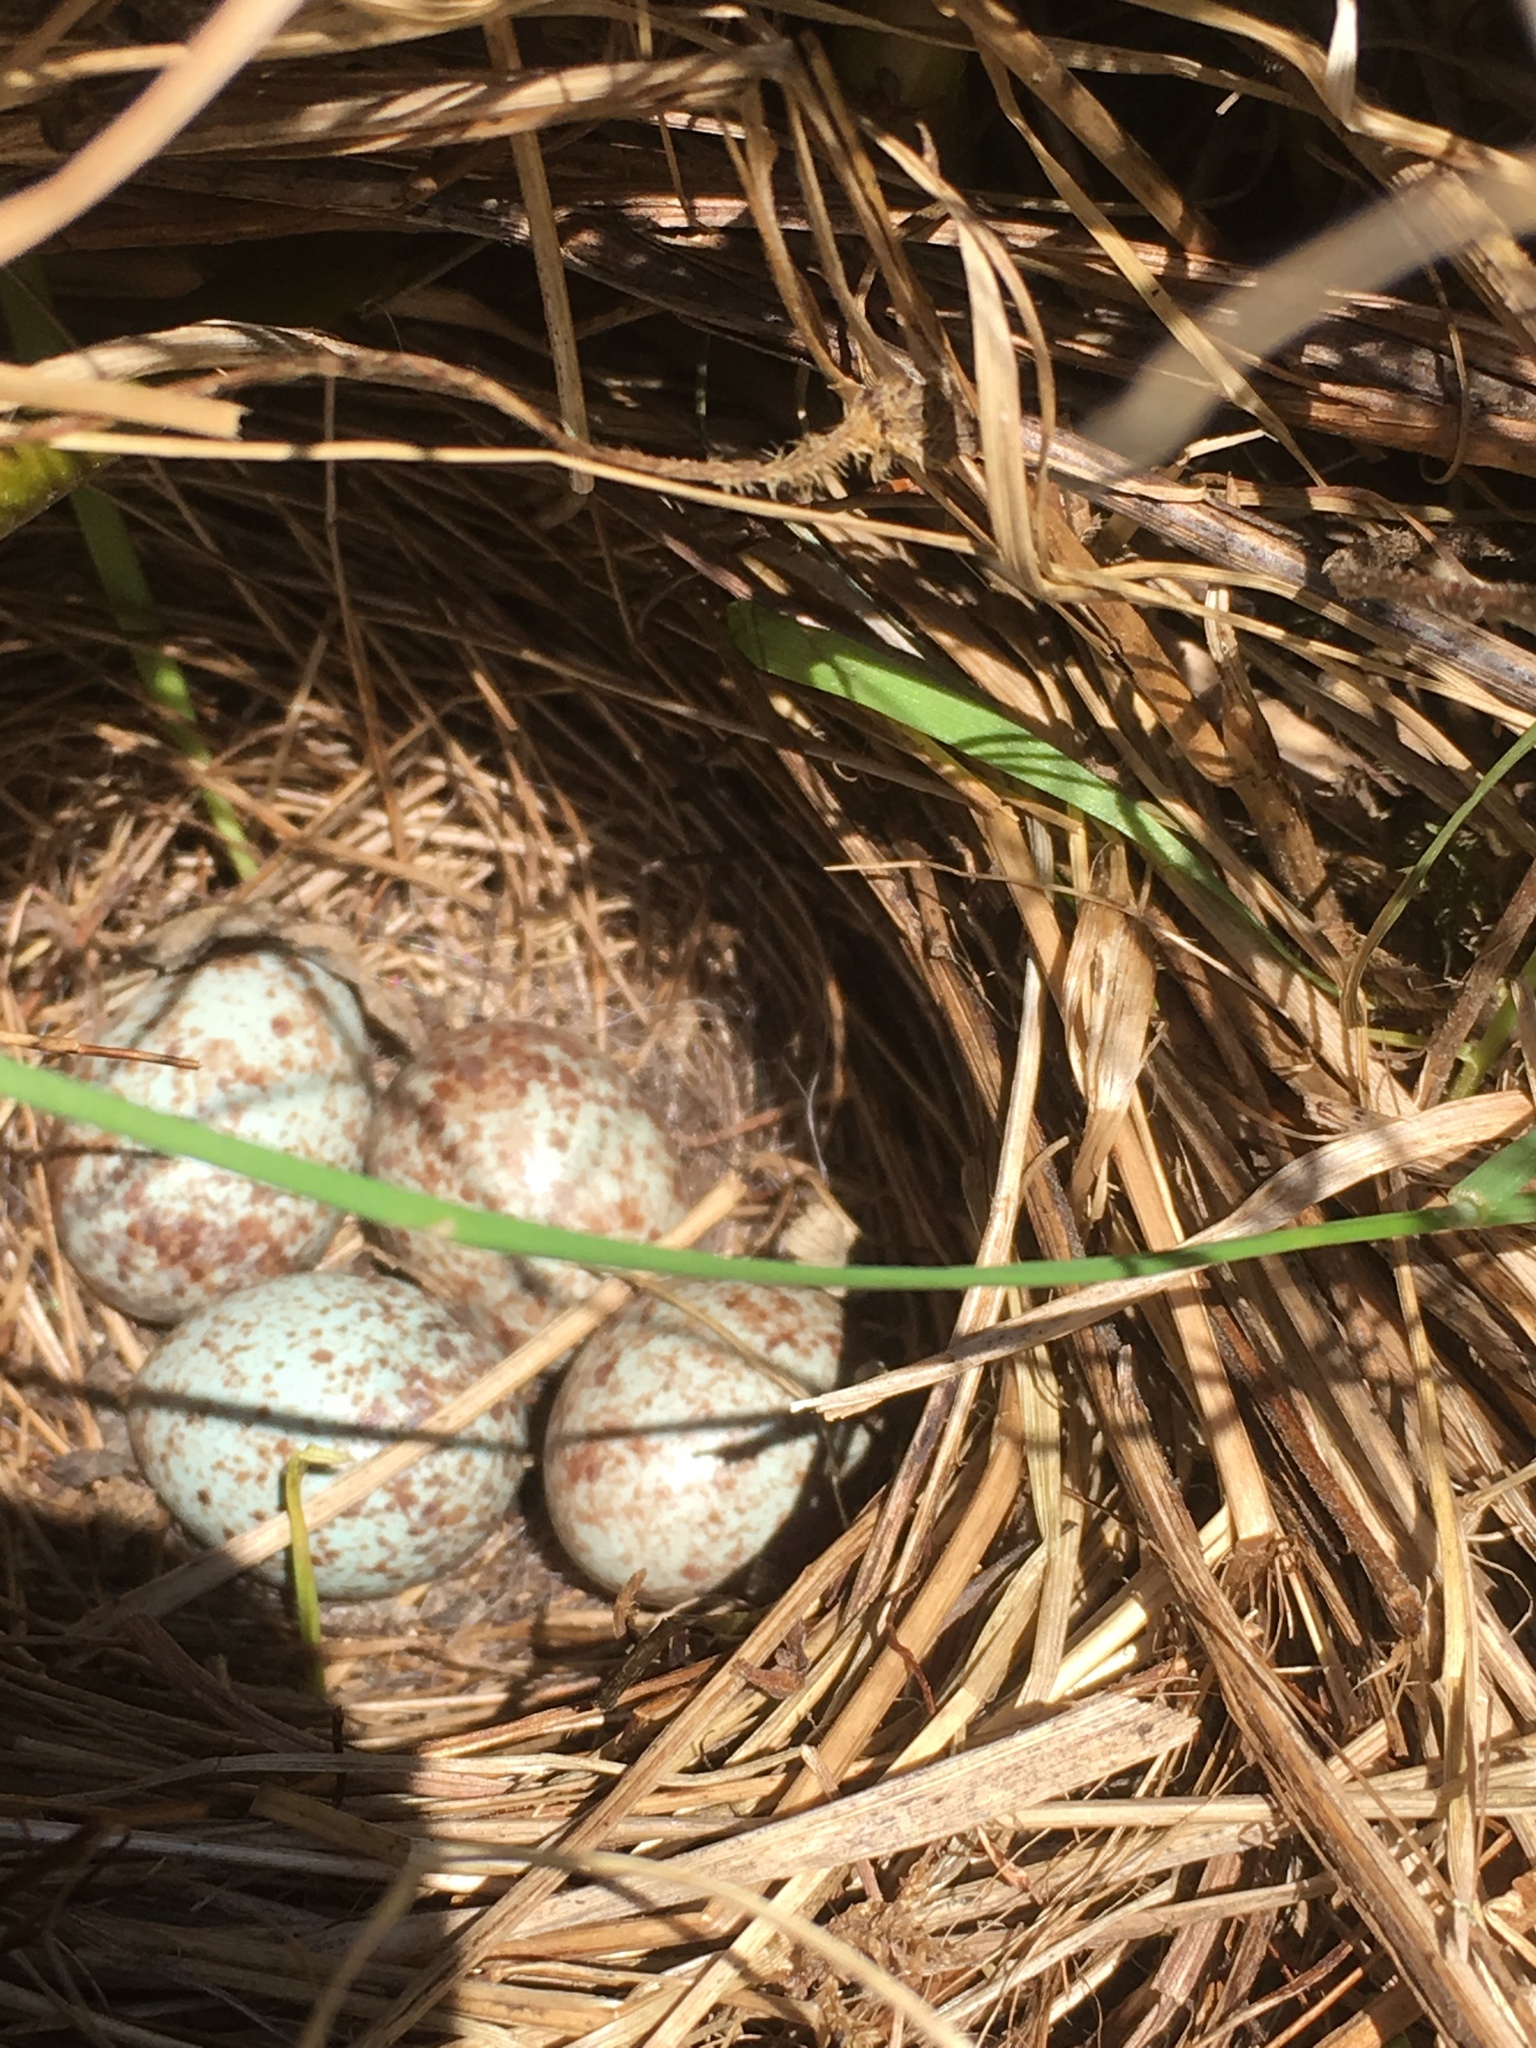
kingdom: Animalia
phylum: Chordata
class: Aves
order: Passeriformes
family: Passerellidae
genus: Melospiza
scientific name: Melospiza melodia
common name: Song sparrow
